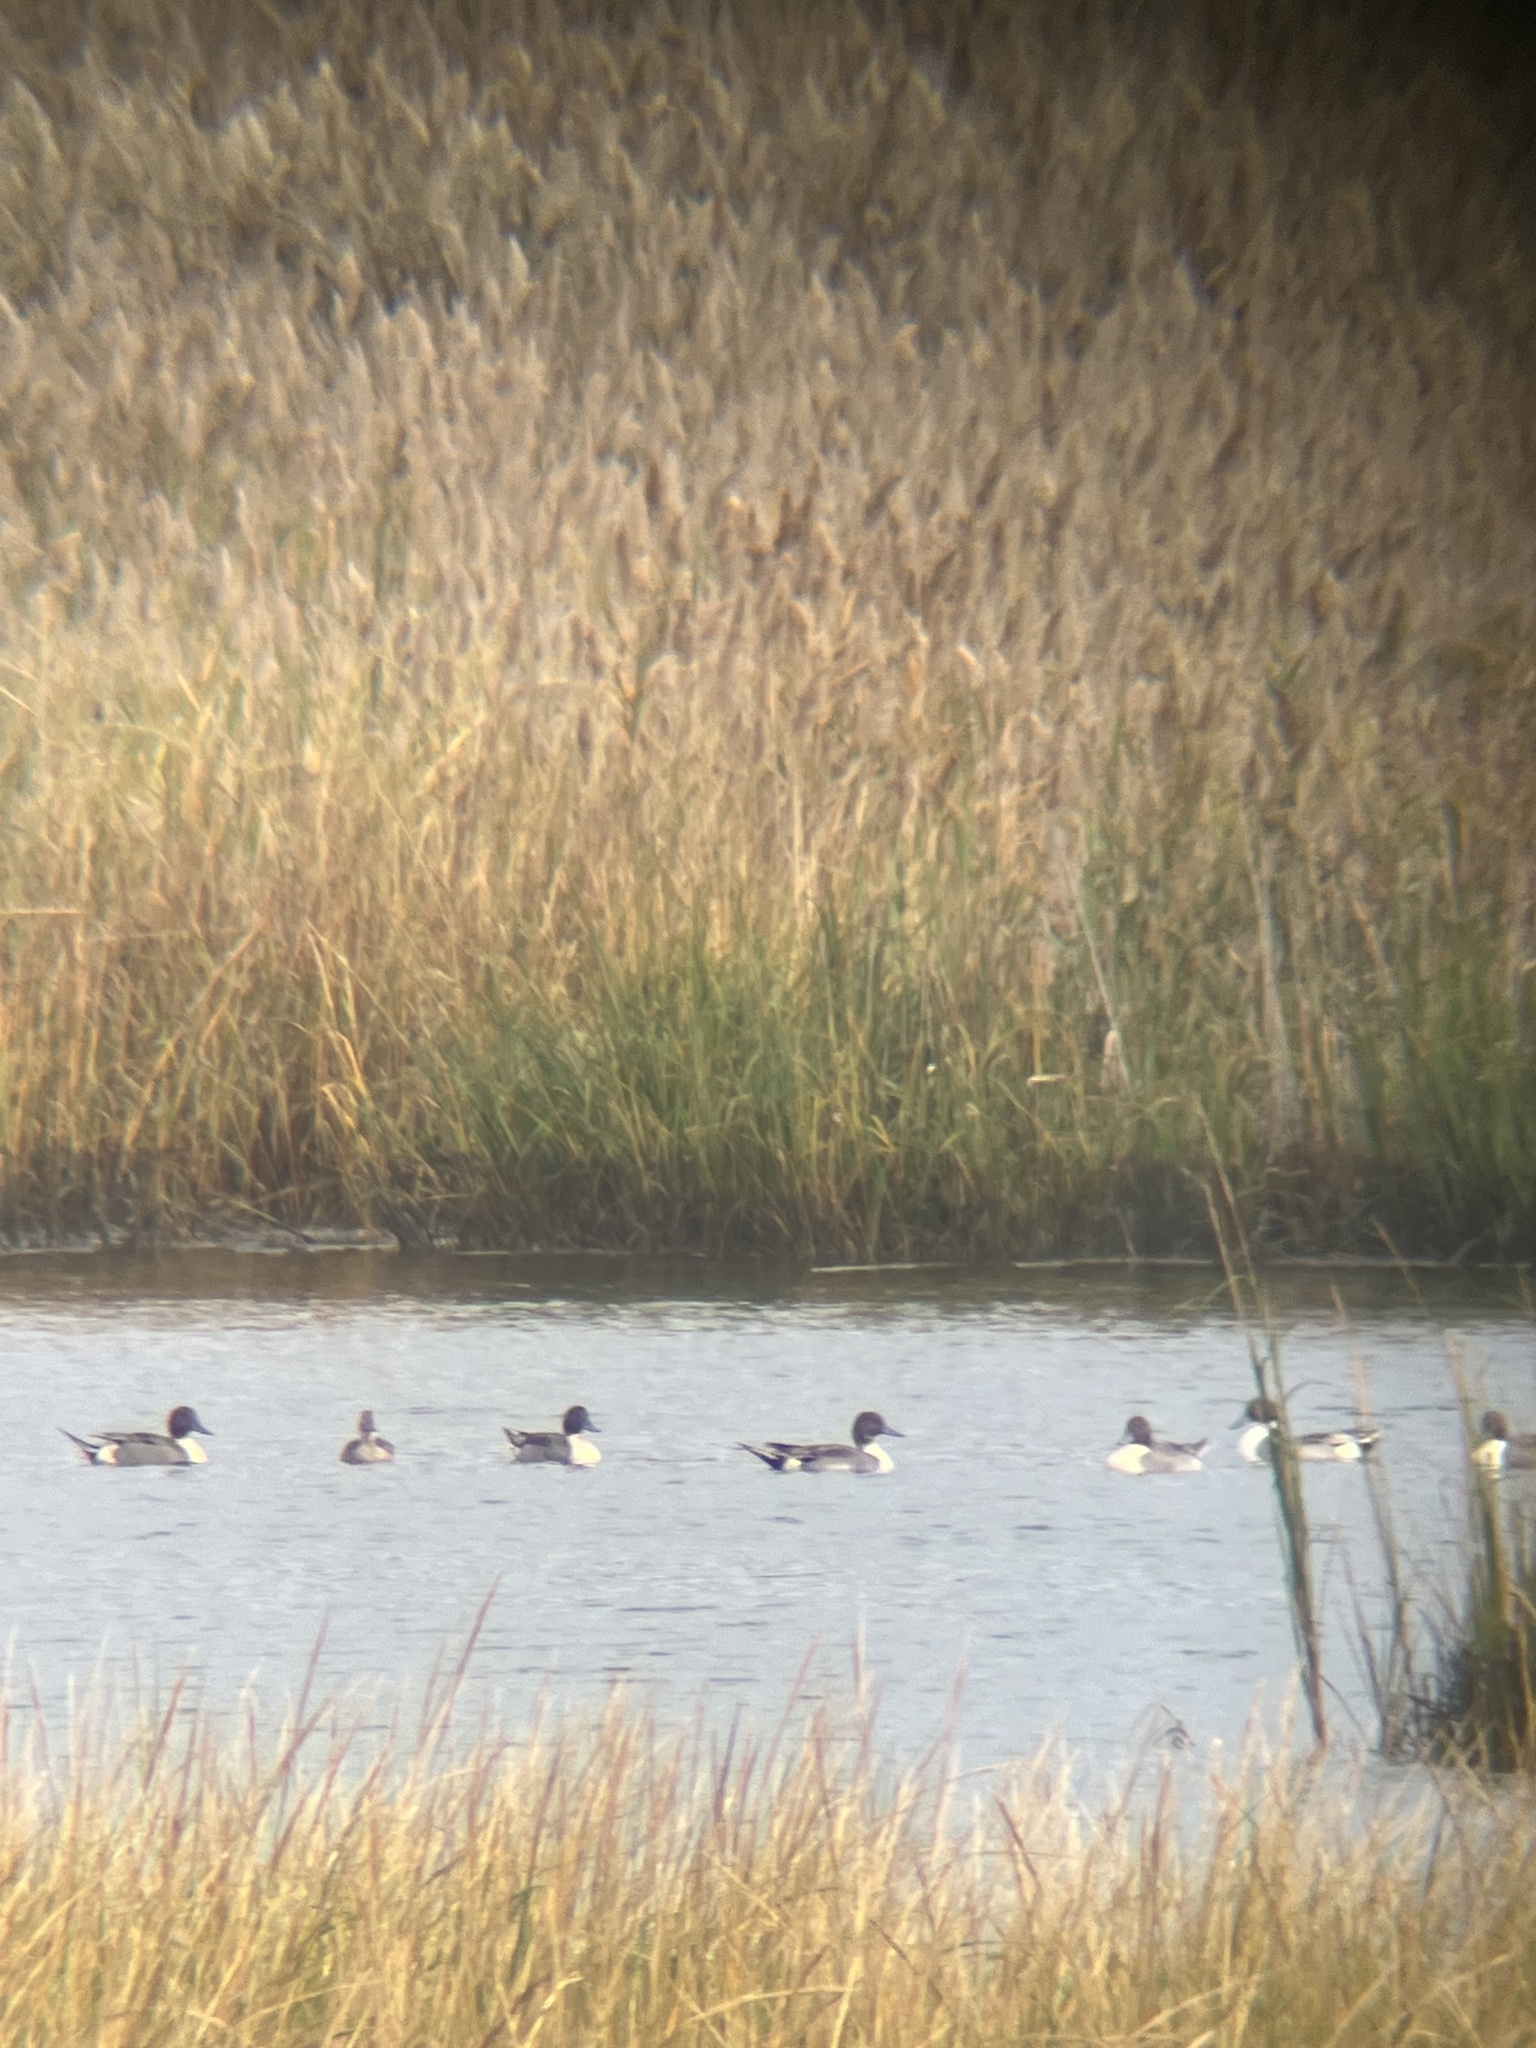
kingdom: Animalia
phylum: Chordata
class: Aves
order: Anseriformes
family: Anatidae
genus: Anas
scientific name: Anas acuta
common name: Northern pintail
